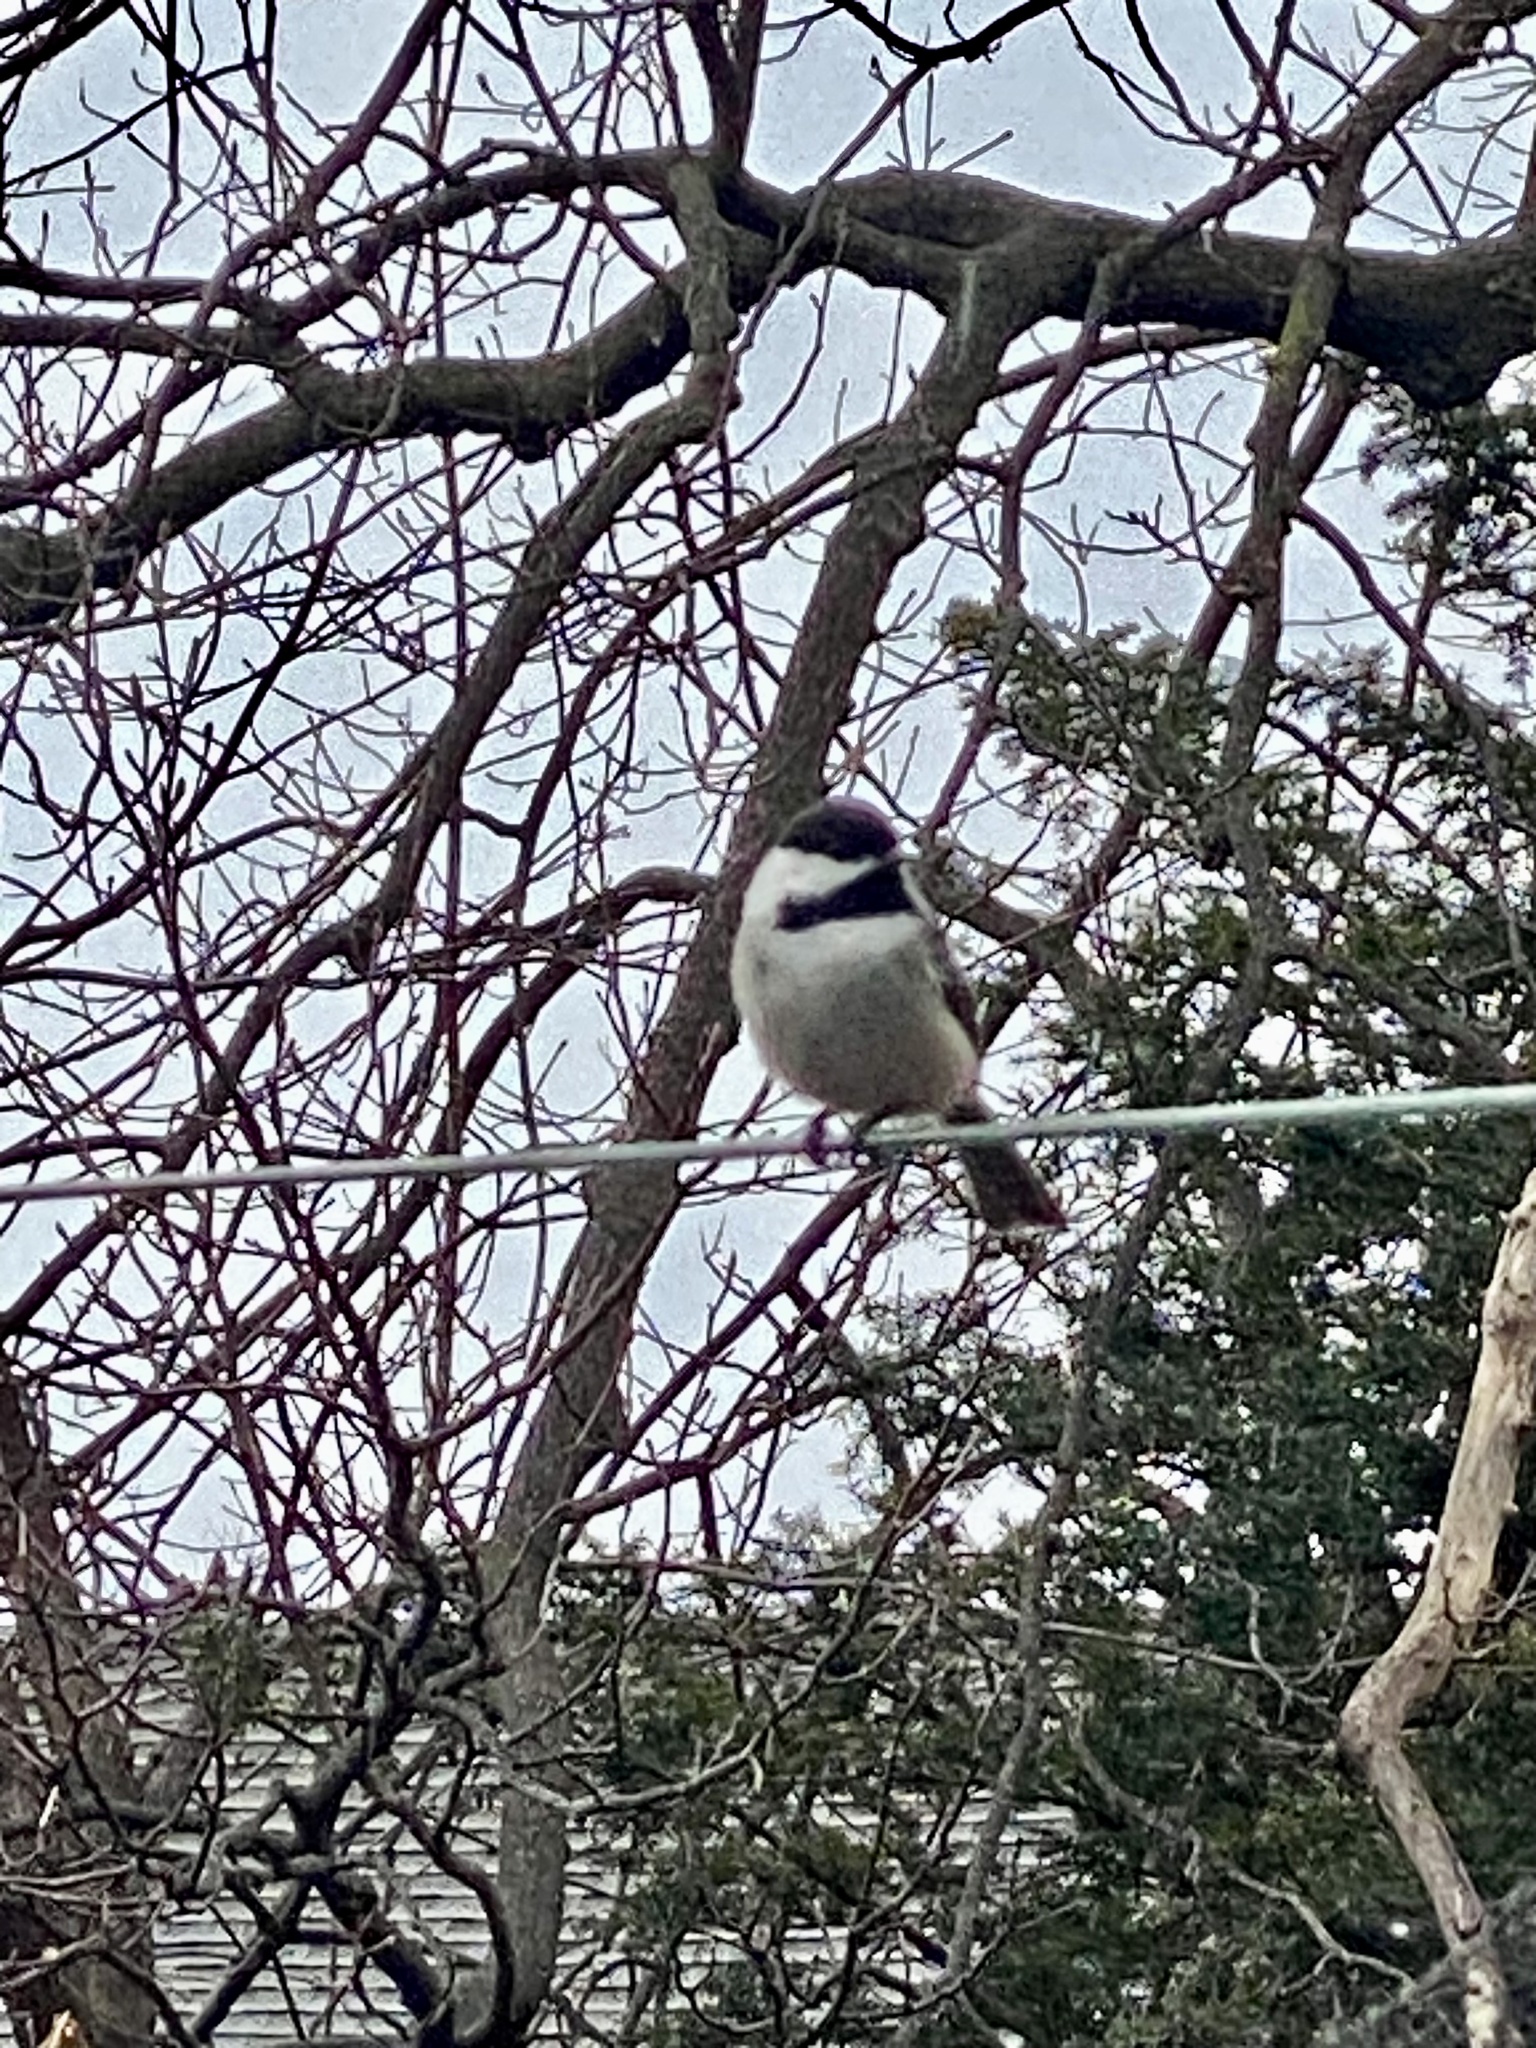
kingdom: Animalia
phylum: Chordata
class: Aves
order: Passeriformes
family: Paridae
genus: Poecile
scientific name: Poecile atricapillus
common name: Black-capped chickadee
